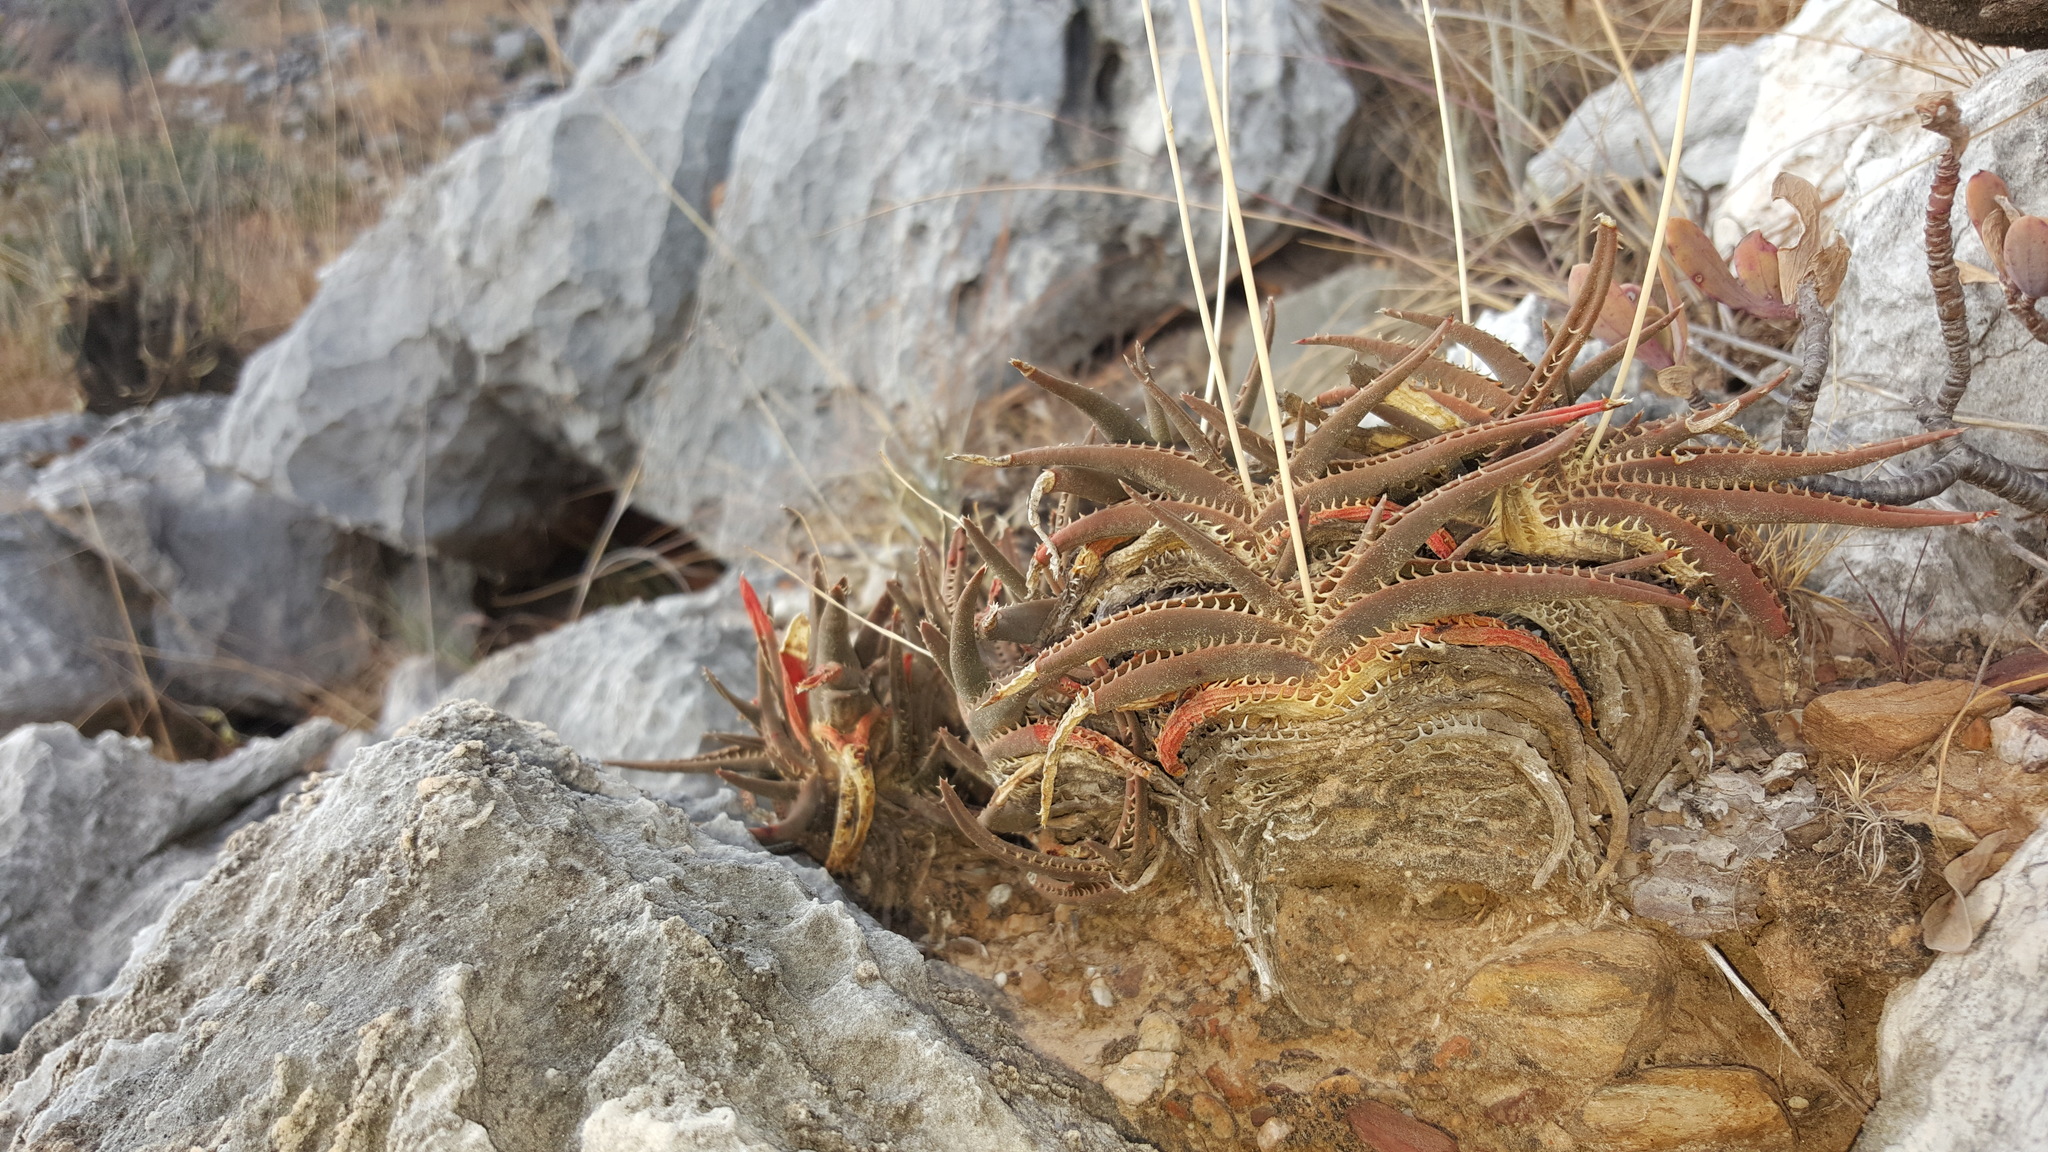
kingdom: Plantae
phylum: Tracheophyta
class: Liliopsida
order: Asparagales
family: Asphodelaceae
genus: Aloe
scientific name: Aloe calcairophila
